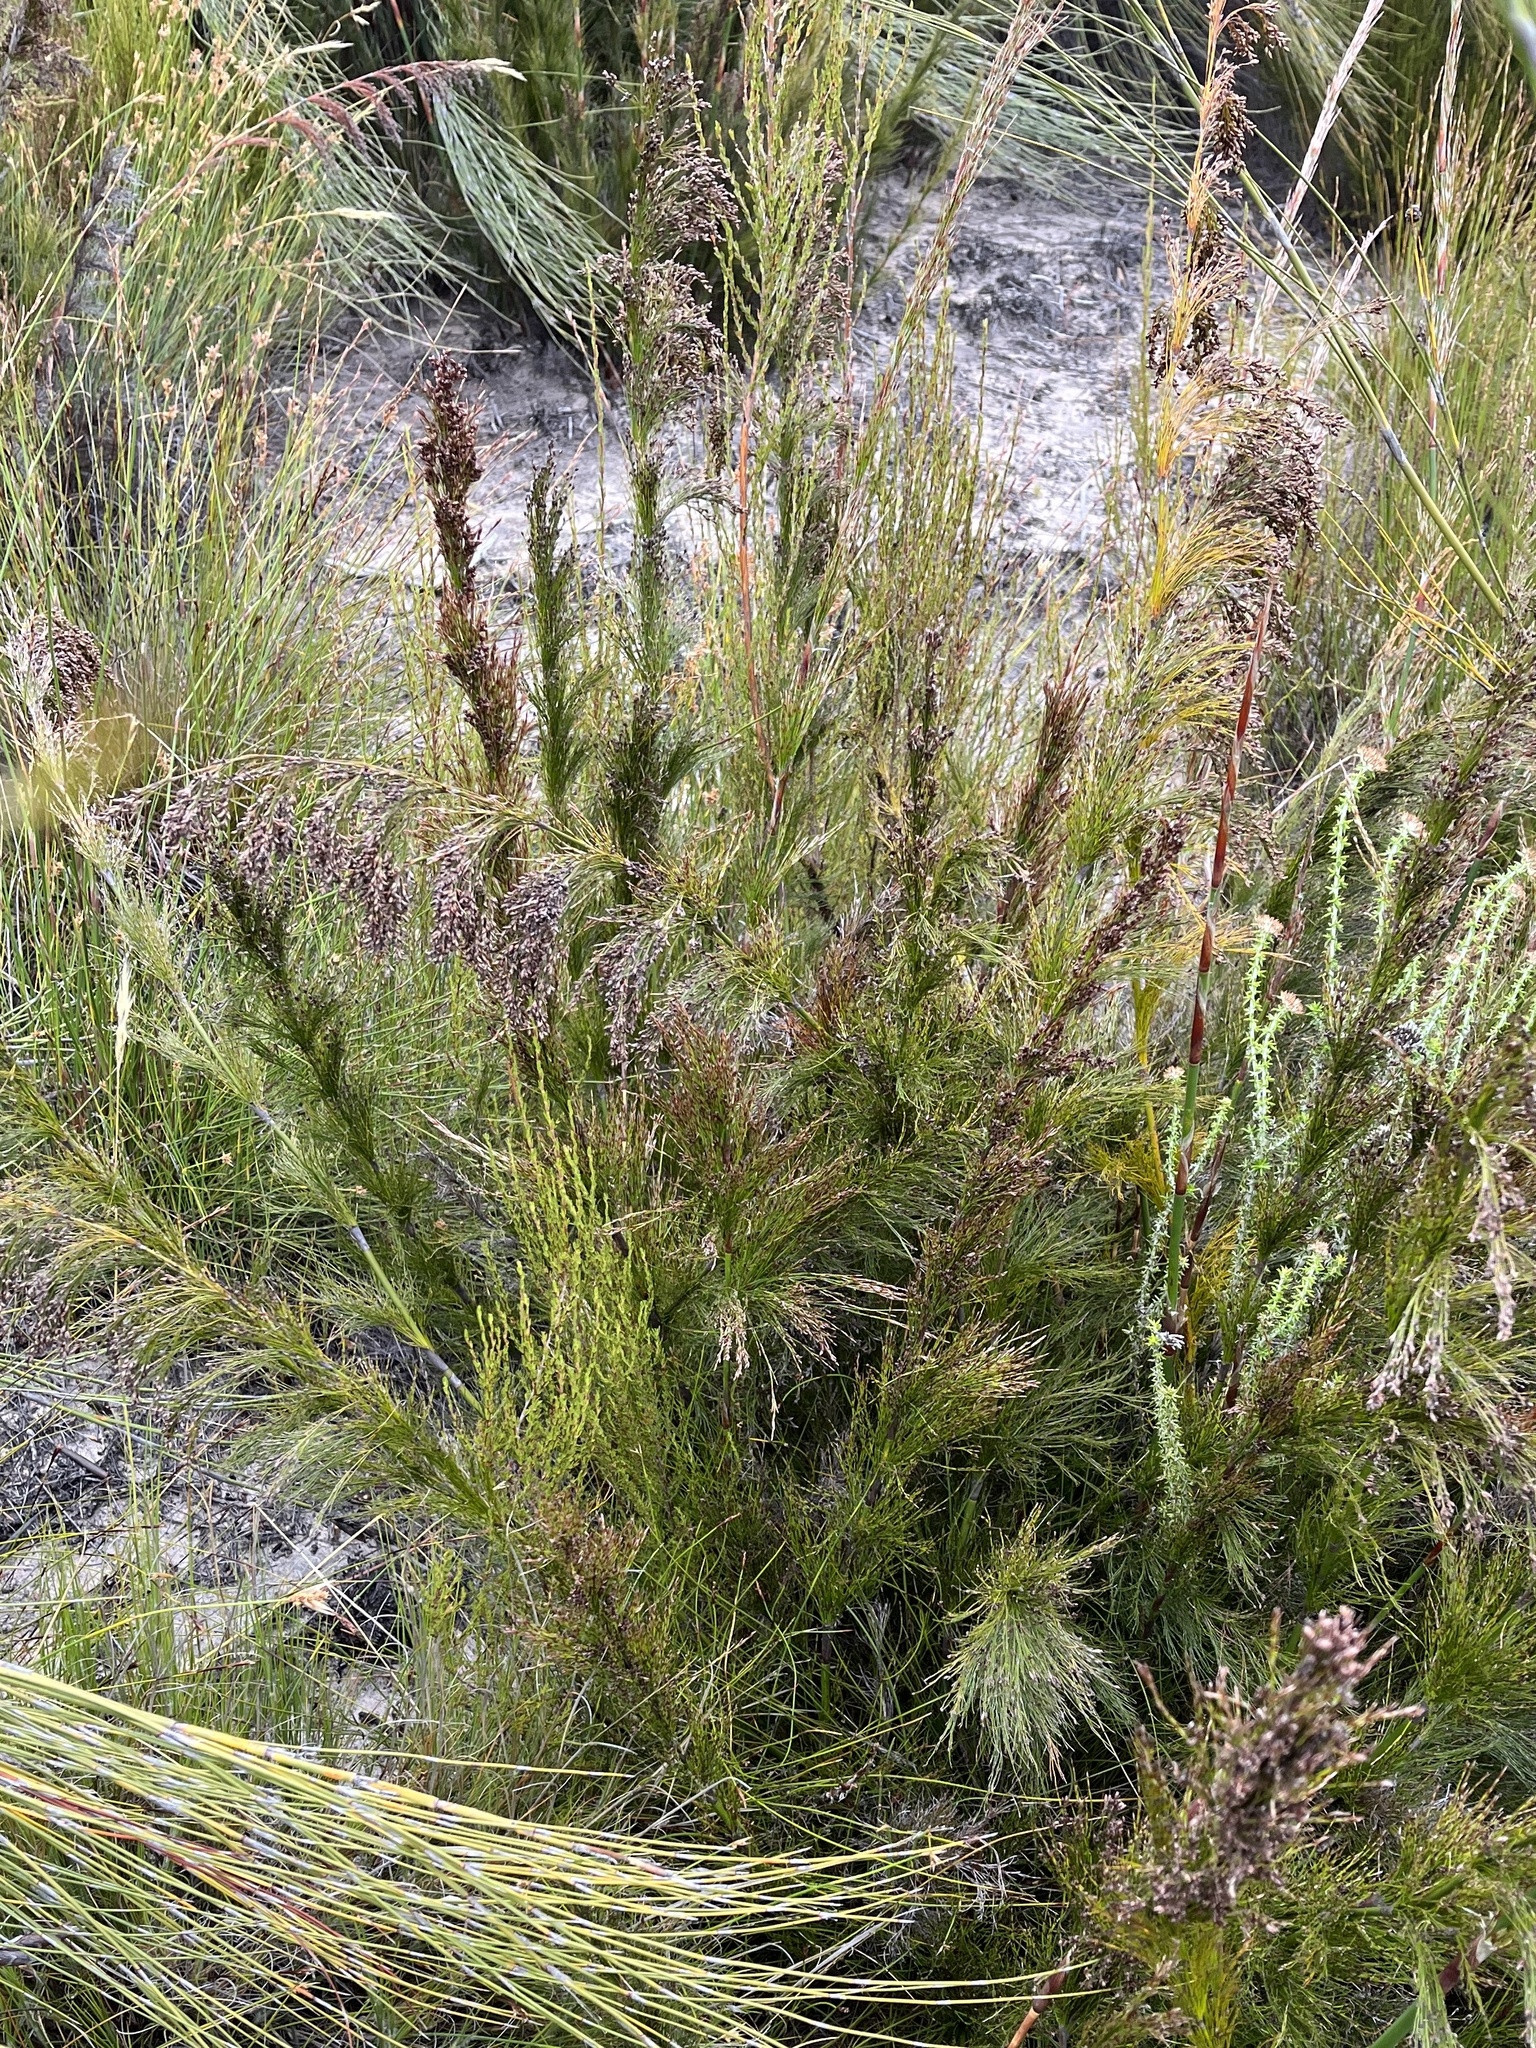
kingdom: Plantae
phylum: Tracheophyta
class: Liliopsida
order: Poales
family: Restionaceae
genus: Rhodocoma
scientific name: Rhodocoma capensis
